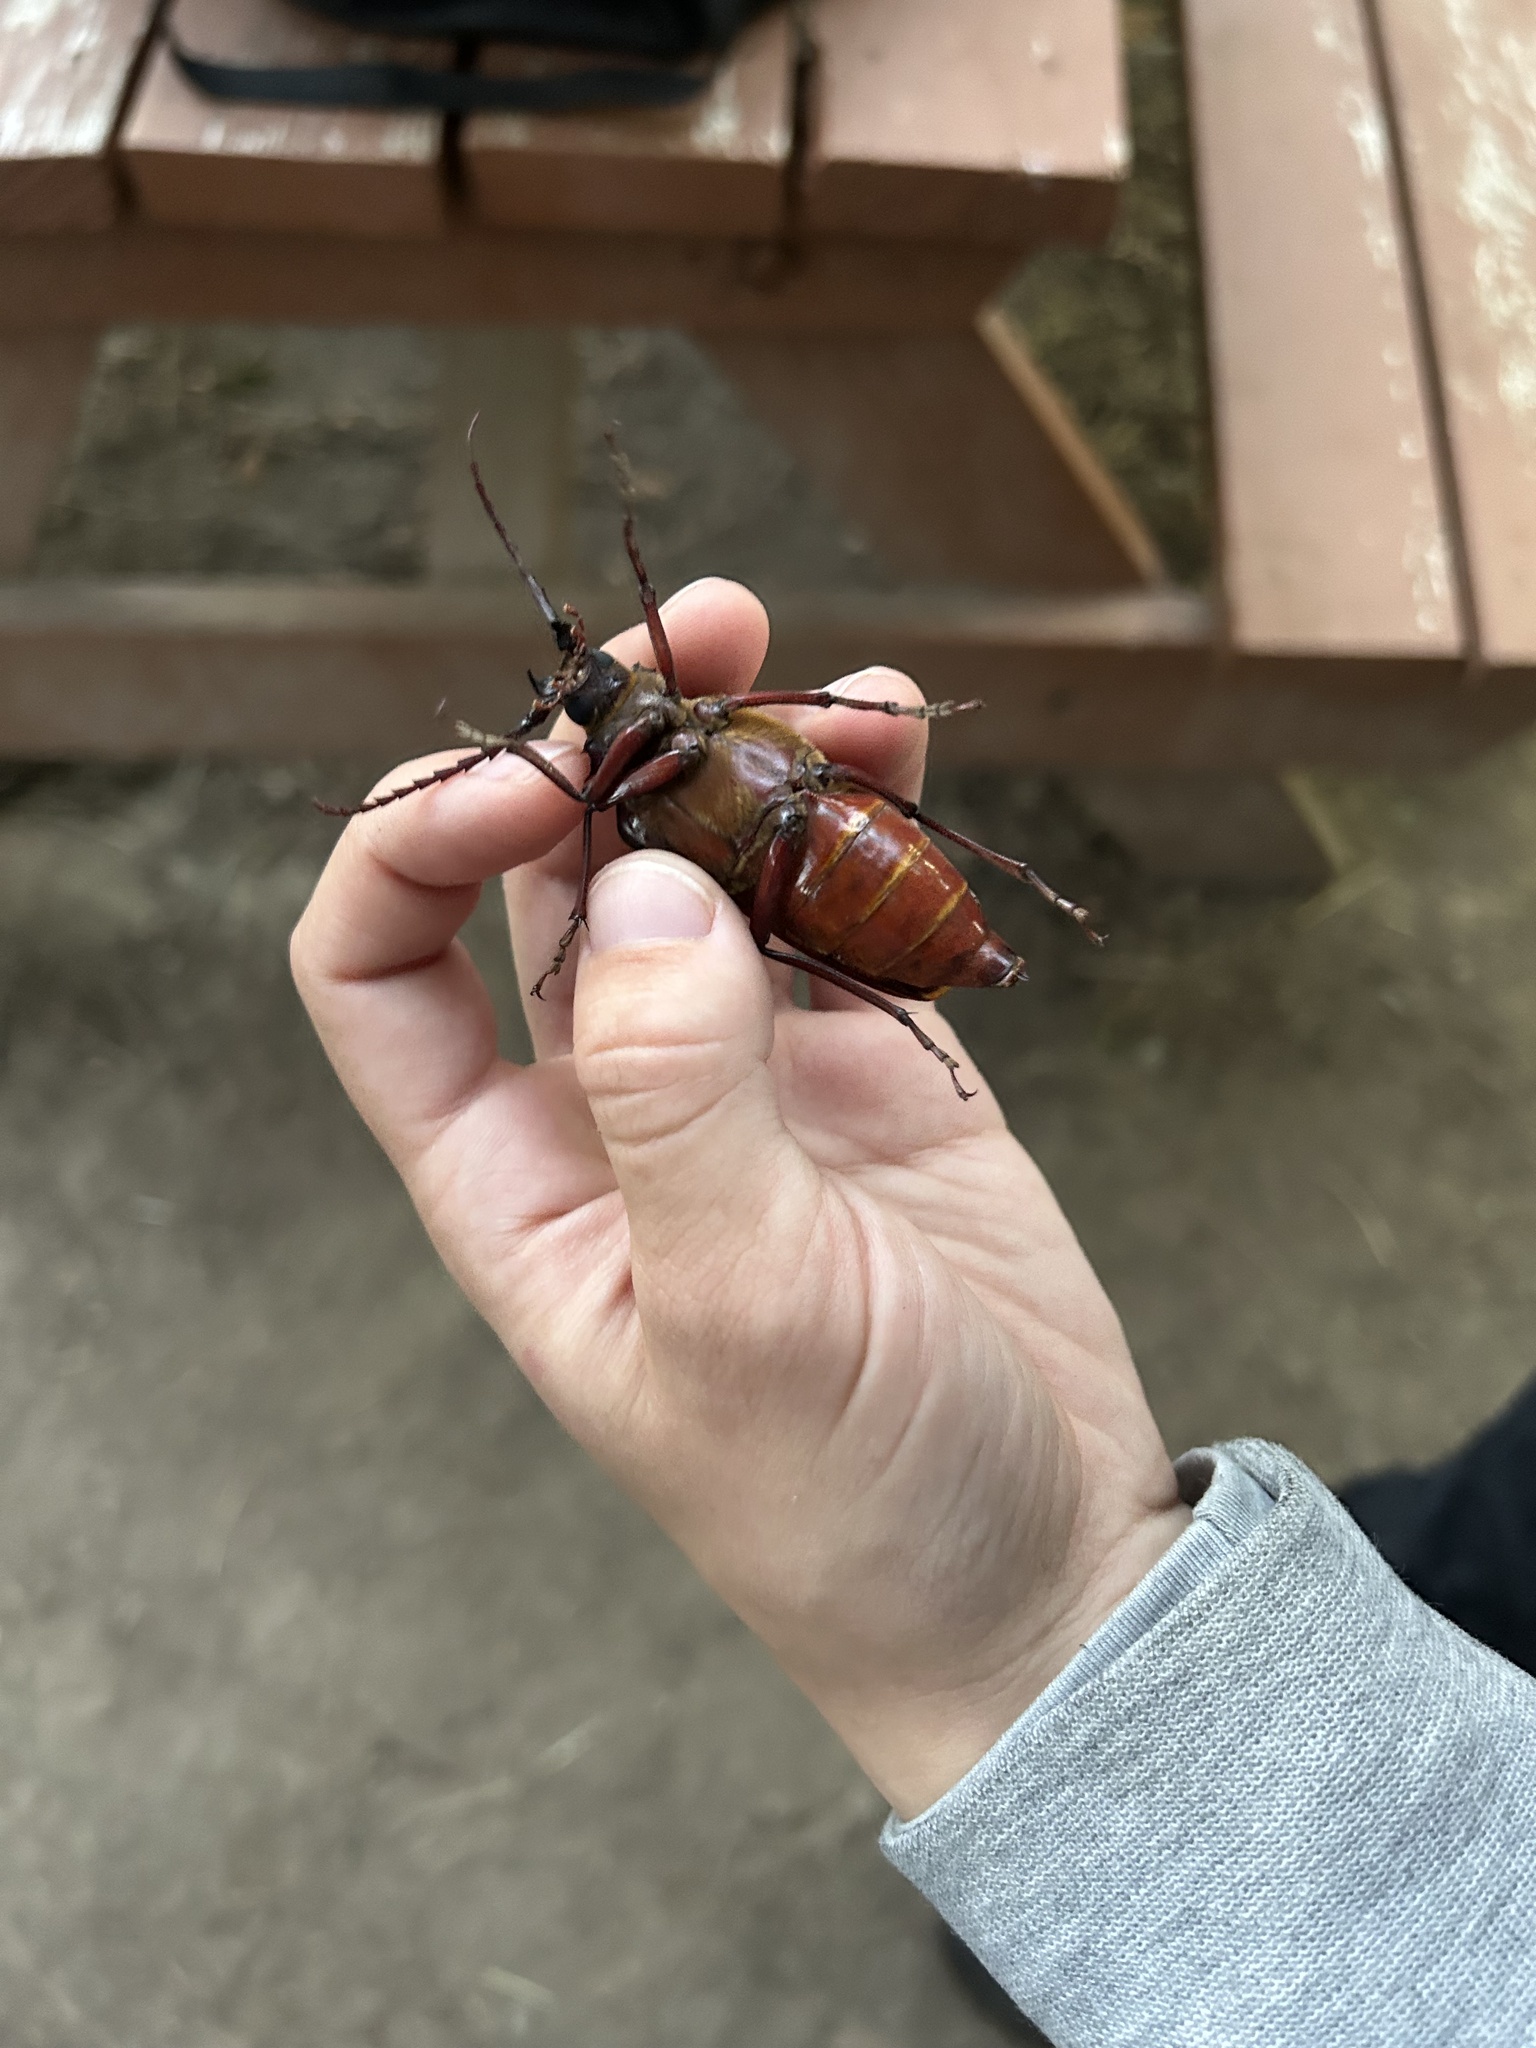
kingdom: Animalia
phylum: Arthropoda
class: Insecta
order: Coleoptera
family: Cerambycidae
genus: Prionus
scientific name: Prionus californicus
